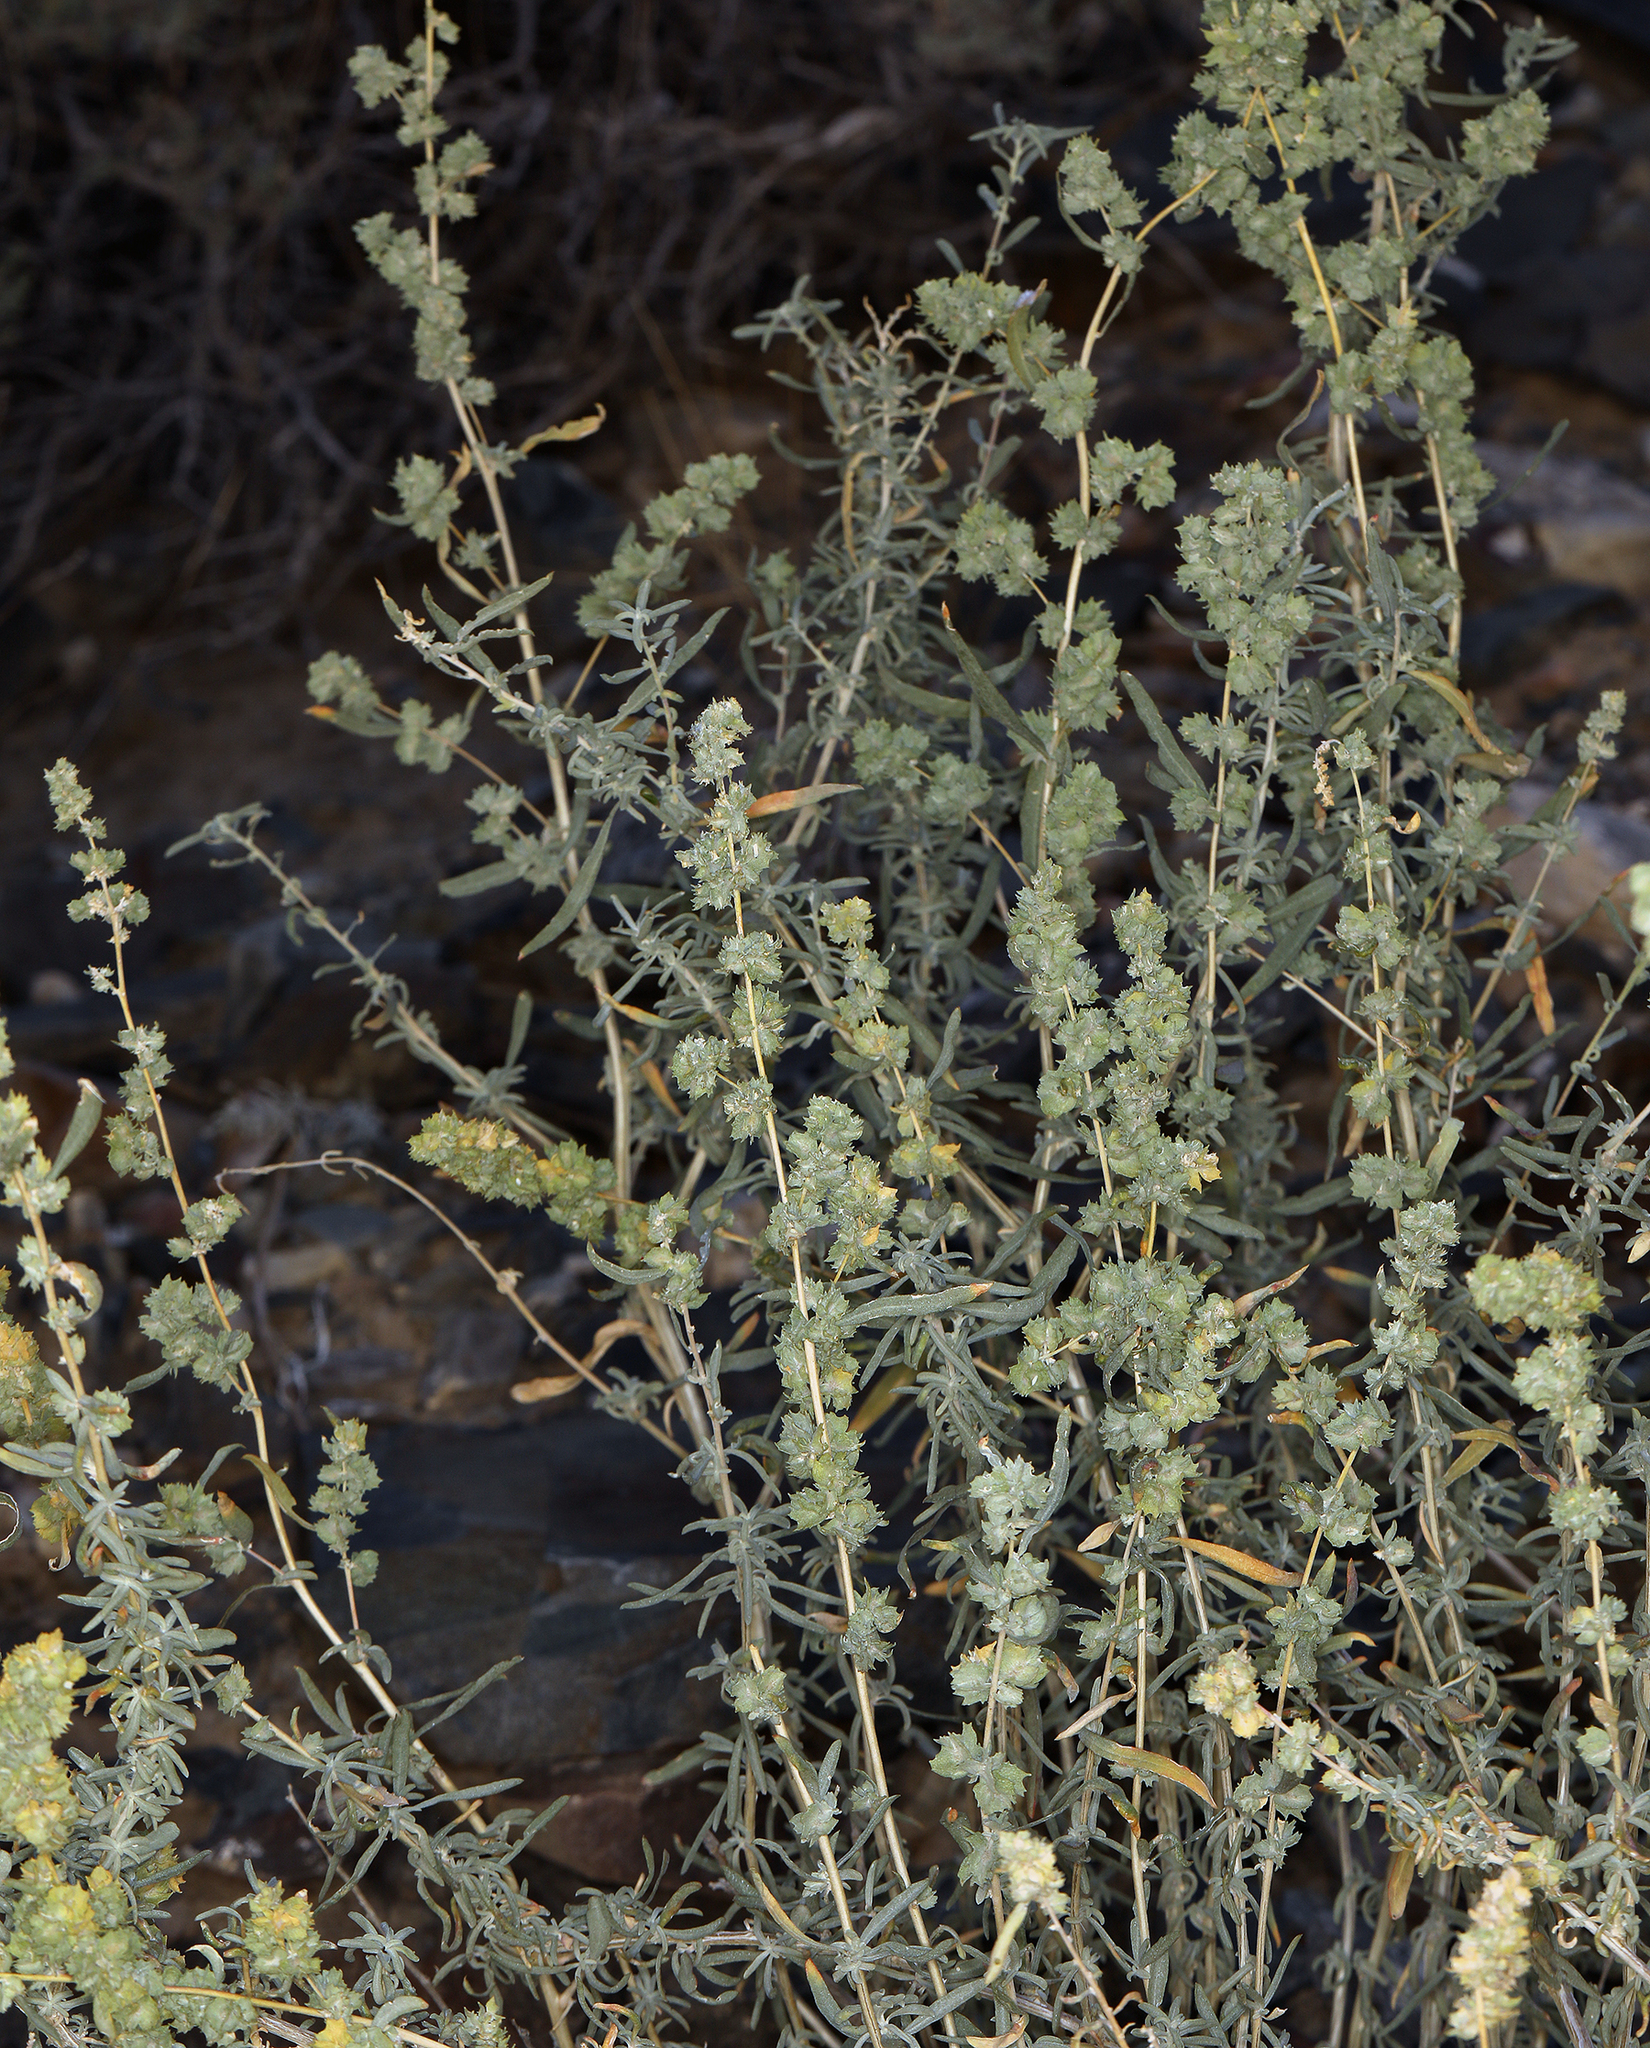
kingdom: Plantae
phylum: Tracheophyta
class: Magnoliopsida
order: Caryophyllales
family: Amaranthaceae
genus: Atriplex
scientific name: Atriplex canescens
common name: Four-wing saltbush
